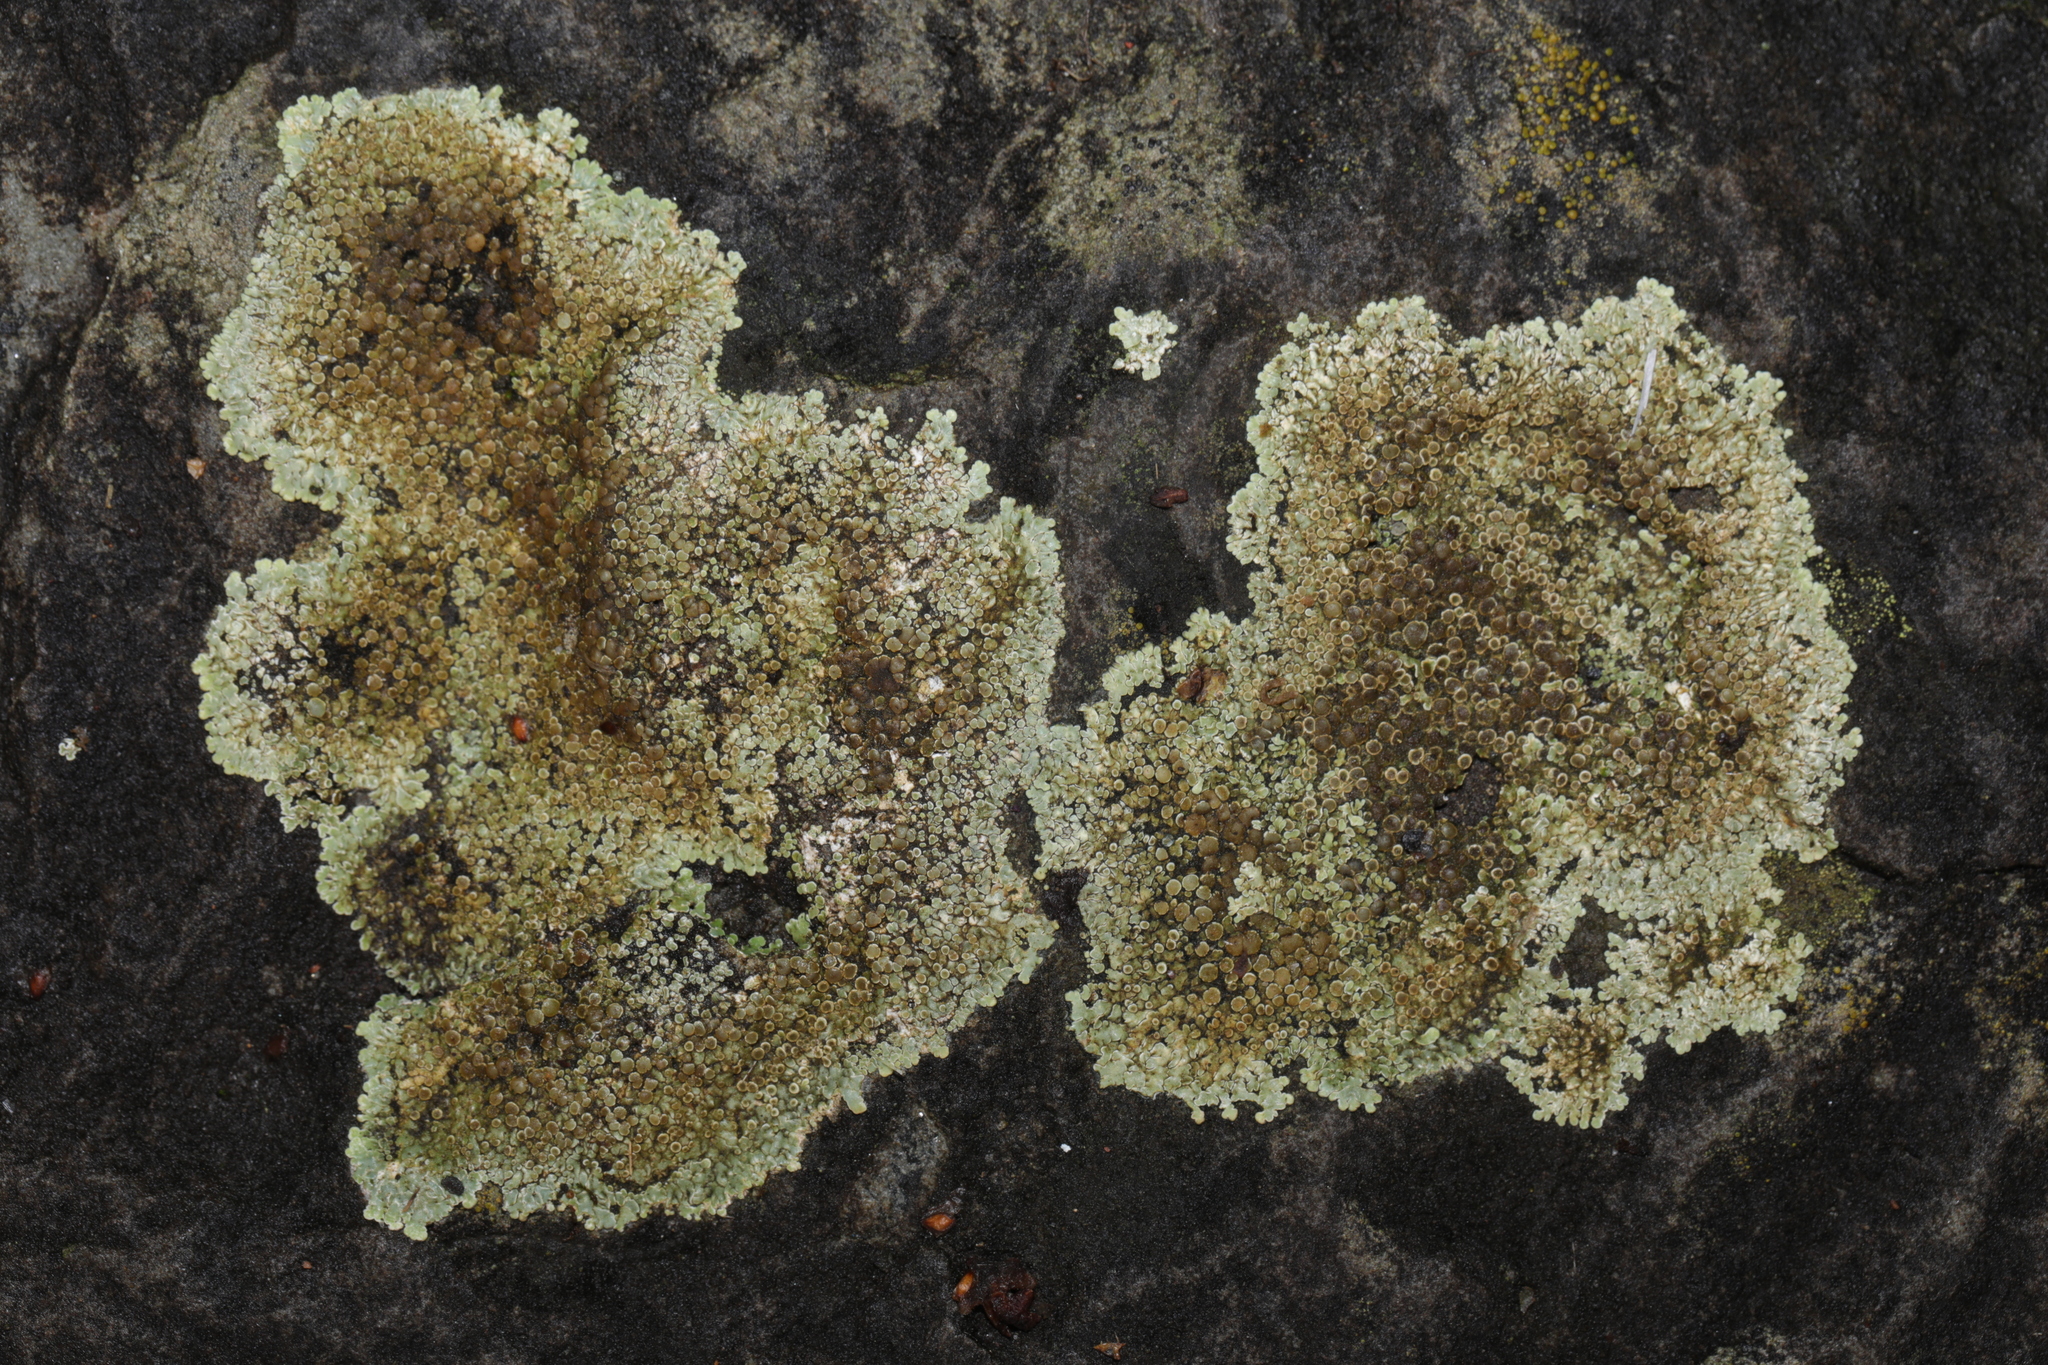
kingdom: Fungi
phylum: Ascomycota
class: Lecanoromycetes
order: Lecanorales
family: Lecanoraceae
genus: Protoparmeliopsis
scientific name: Protoparmeliopsis muralis
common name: Stonewall rim lichen
